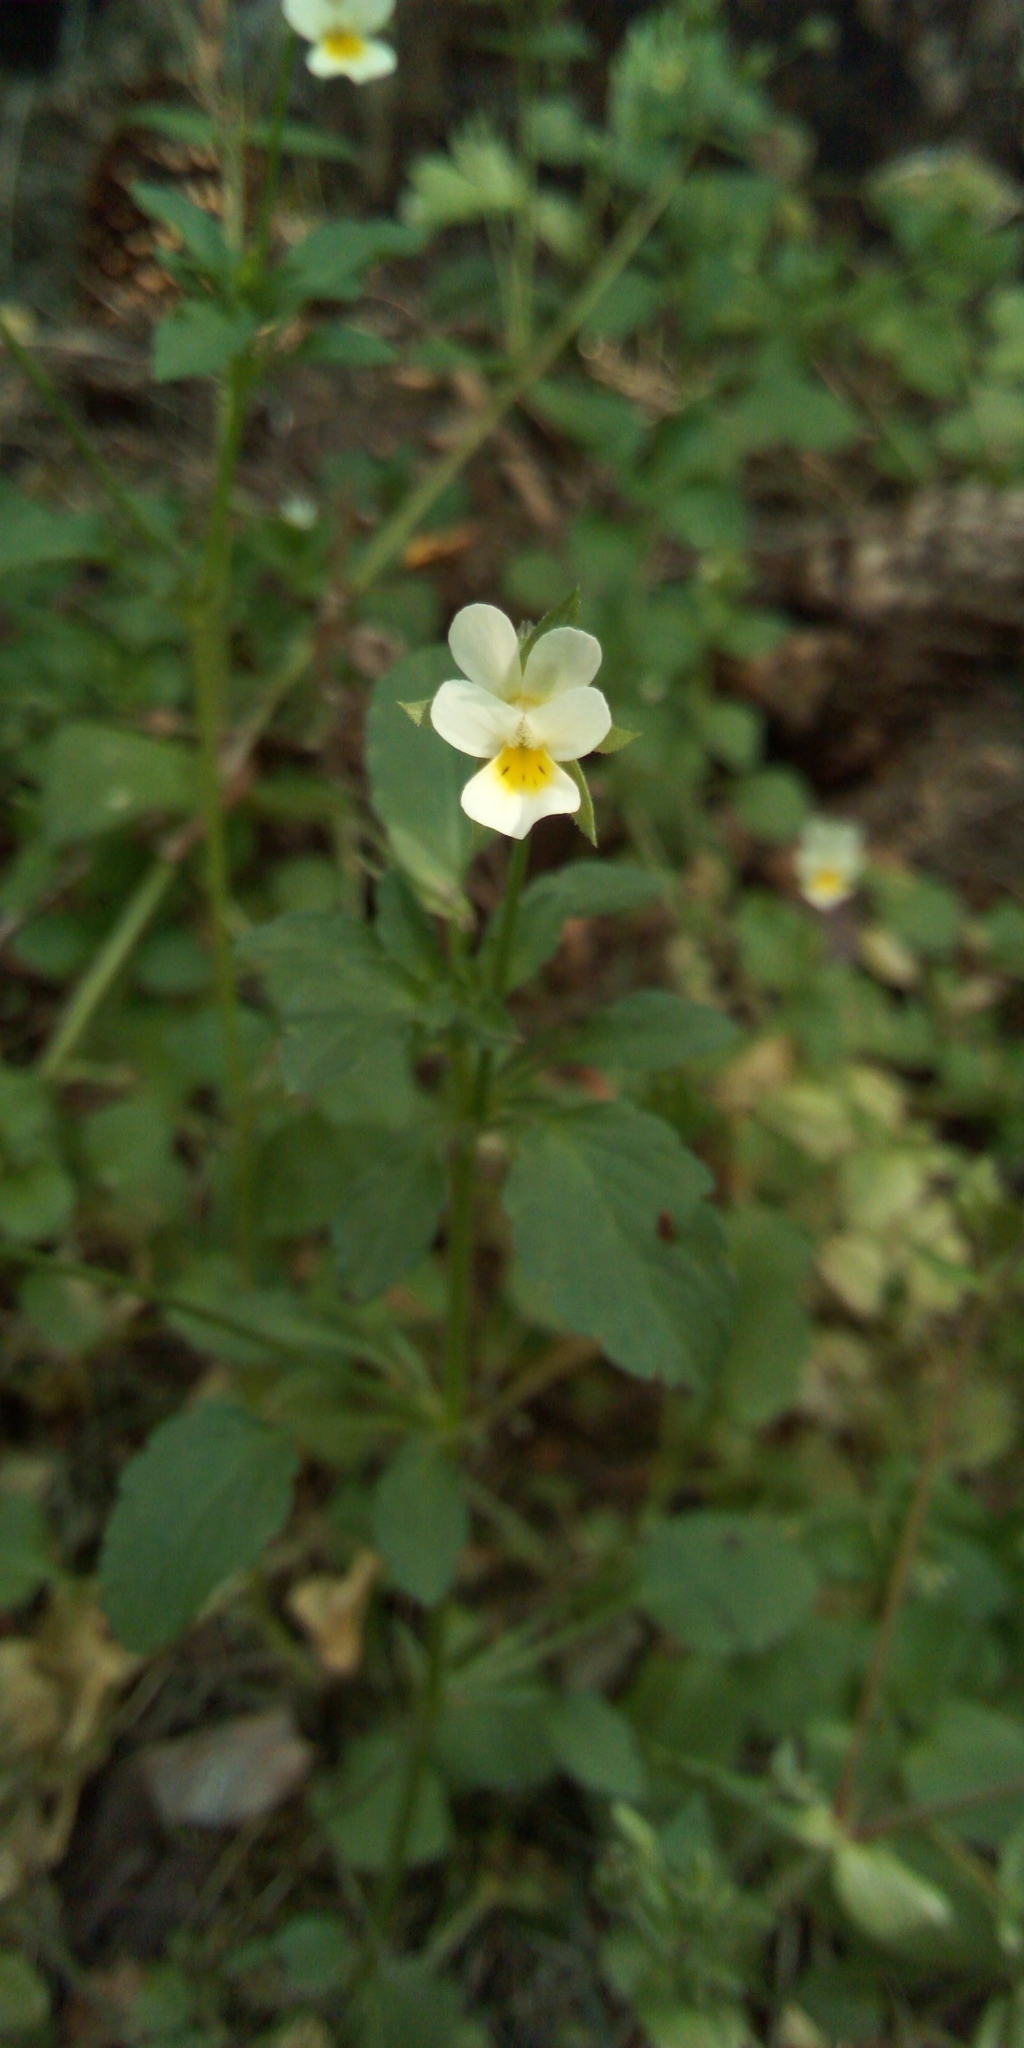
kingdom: Plantae
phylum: Tracheophyta
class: Magnoliopsida
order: Malpighiales
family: Violaceae
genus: Viola
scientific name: Viola arvensis
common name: Field pansy
